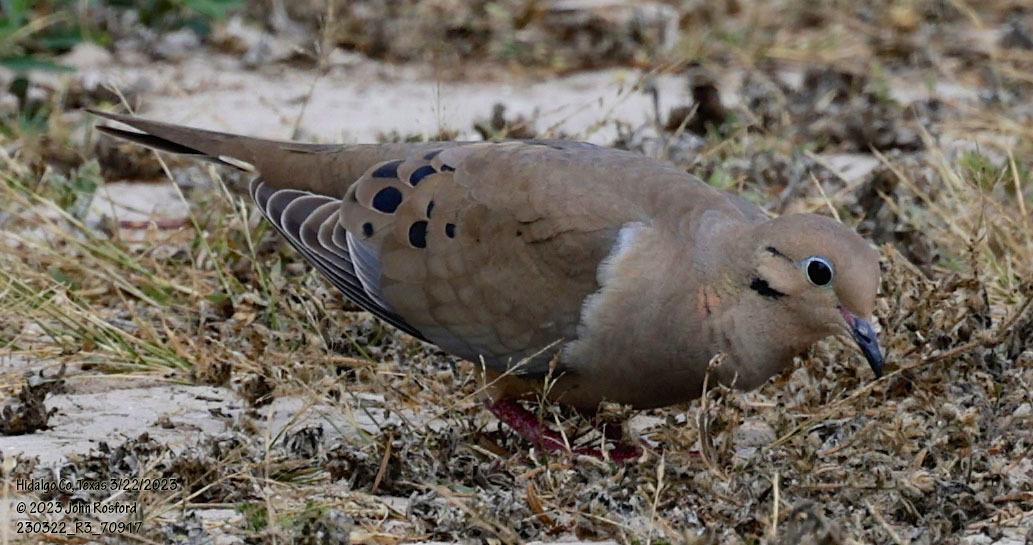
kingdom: Animalia
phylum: Chordata
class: Aves
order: Columbiformes
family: Columbidae
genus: Zenaida
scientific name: Zenaida macroura
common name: Mourning dove
